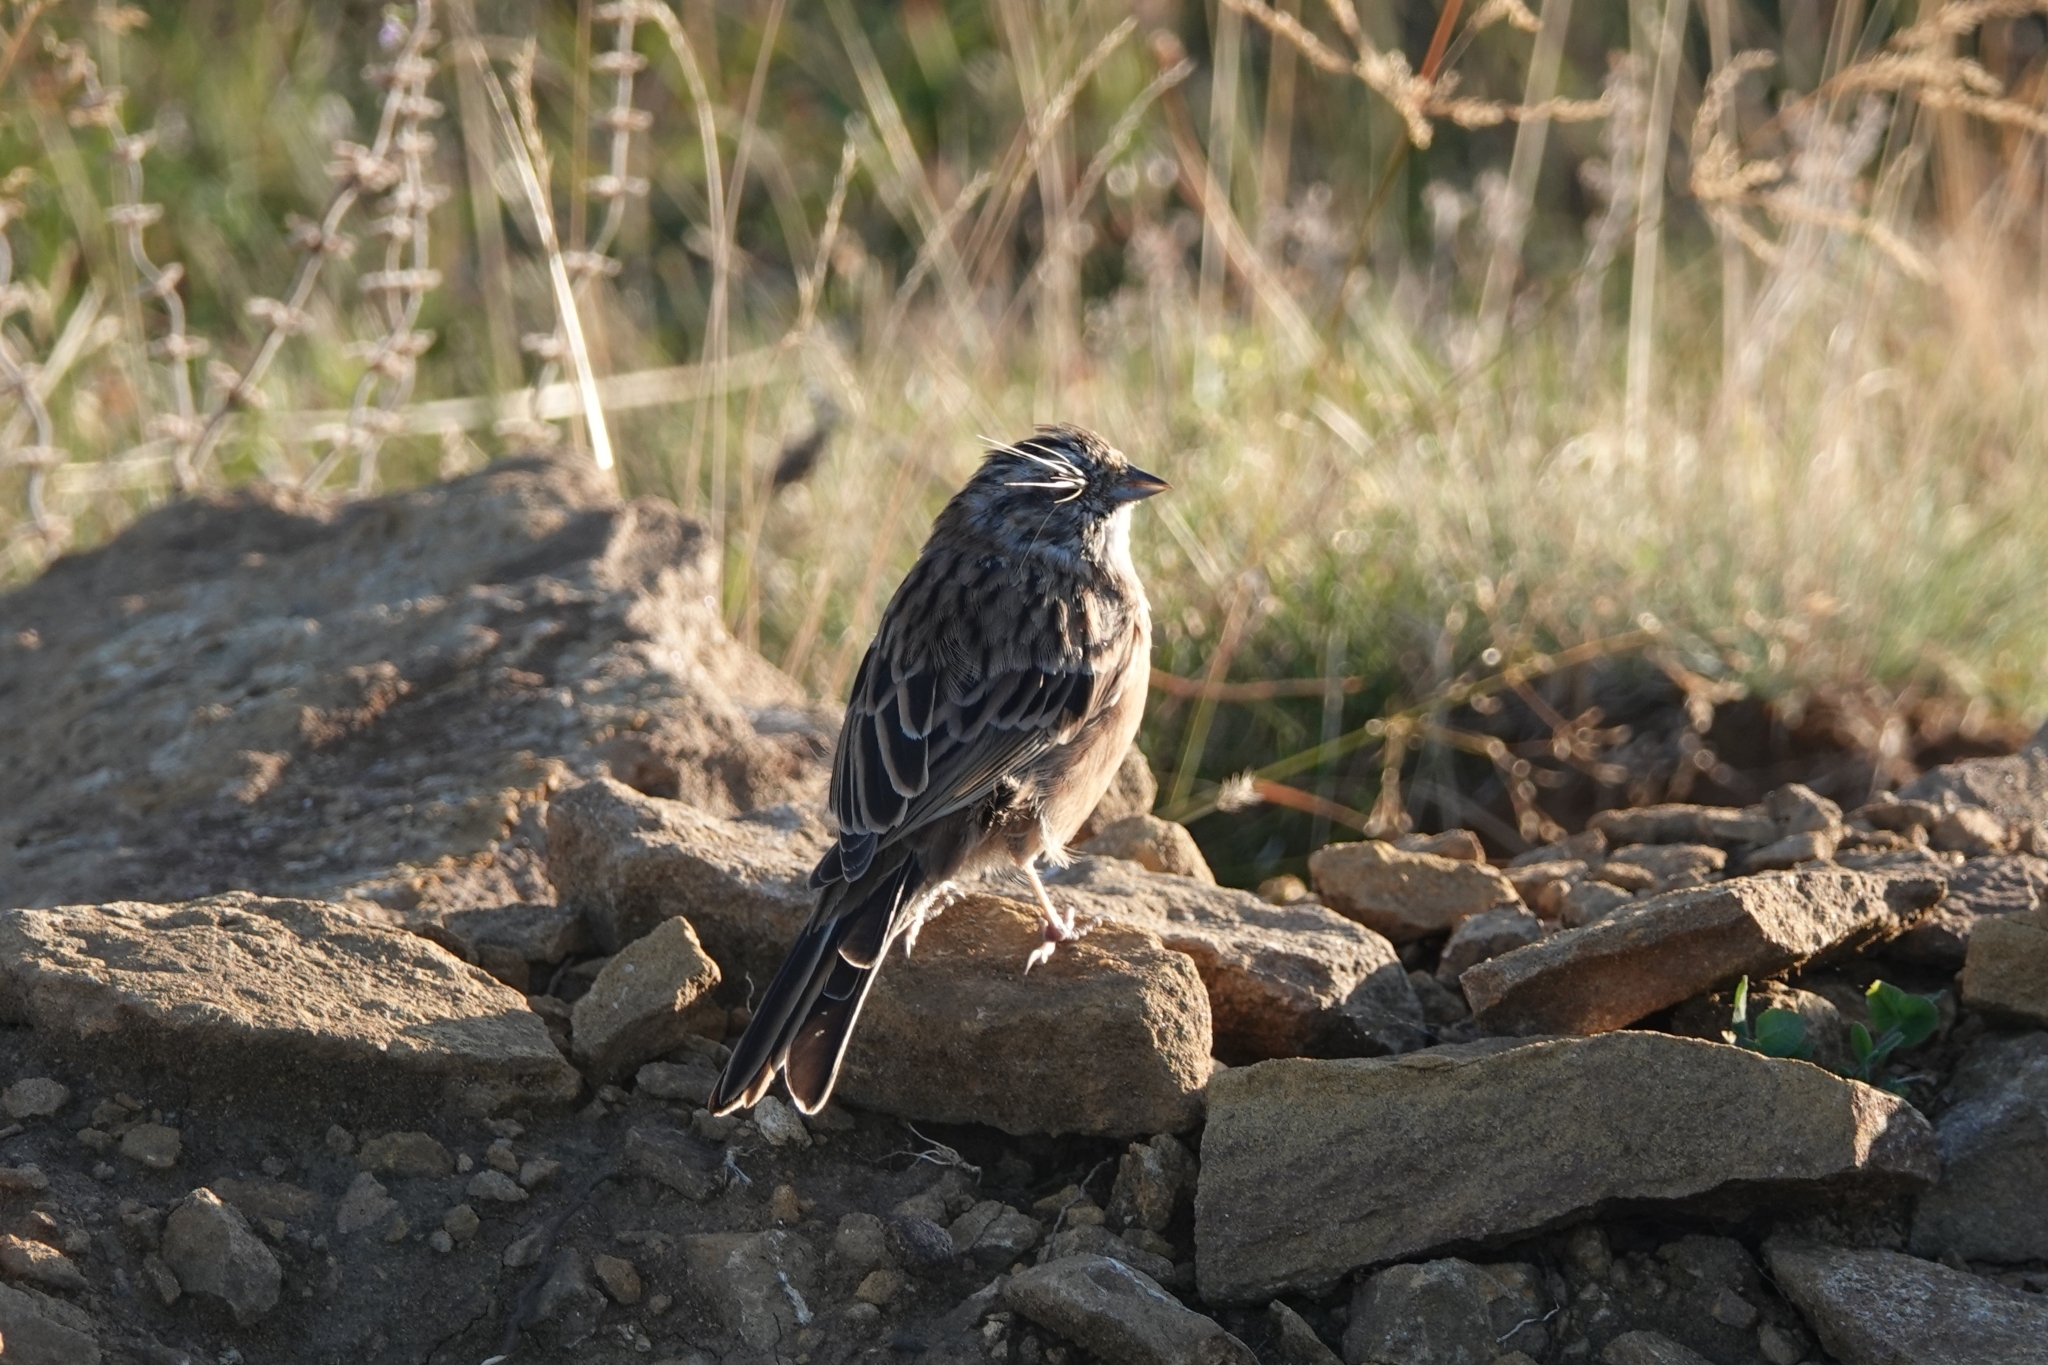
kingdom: Animalia
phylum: Chordata
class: Aves
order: Passeriformes
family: Emberizidae
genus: Emberiza
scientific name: Emberiza cia
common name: Rock bunting
